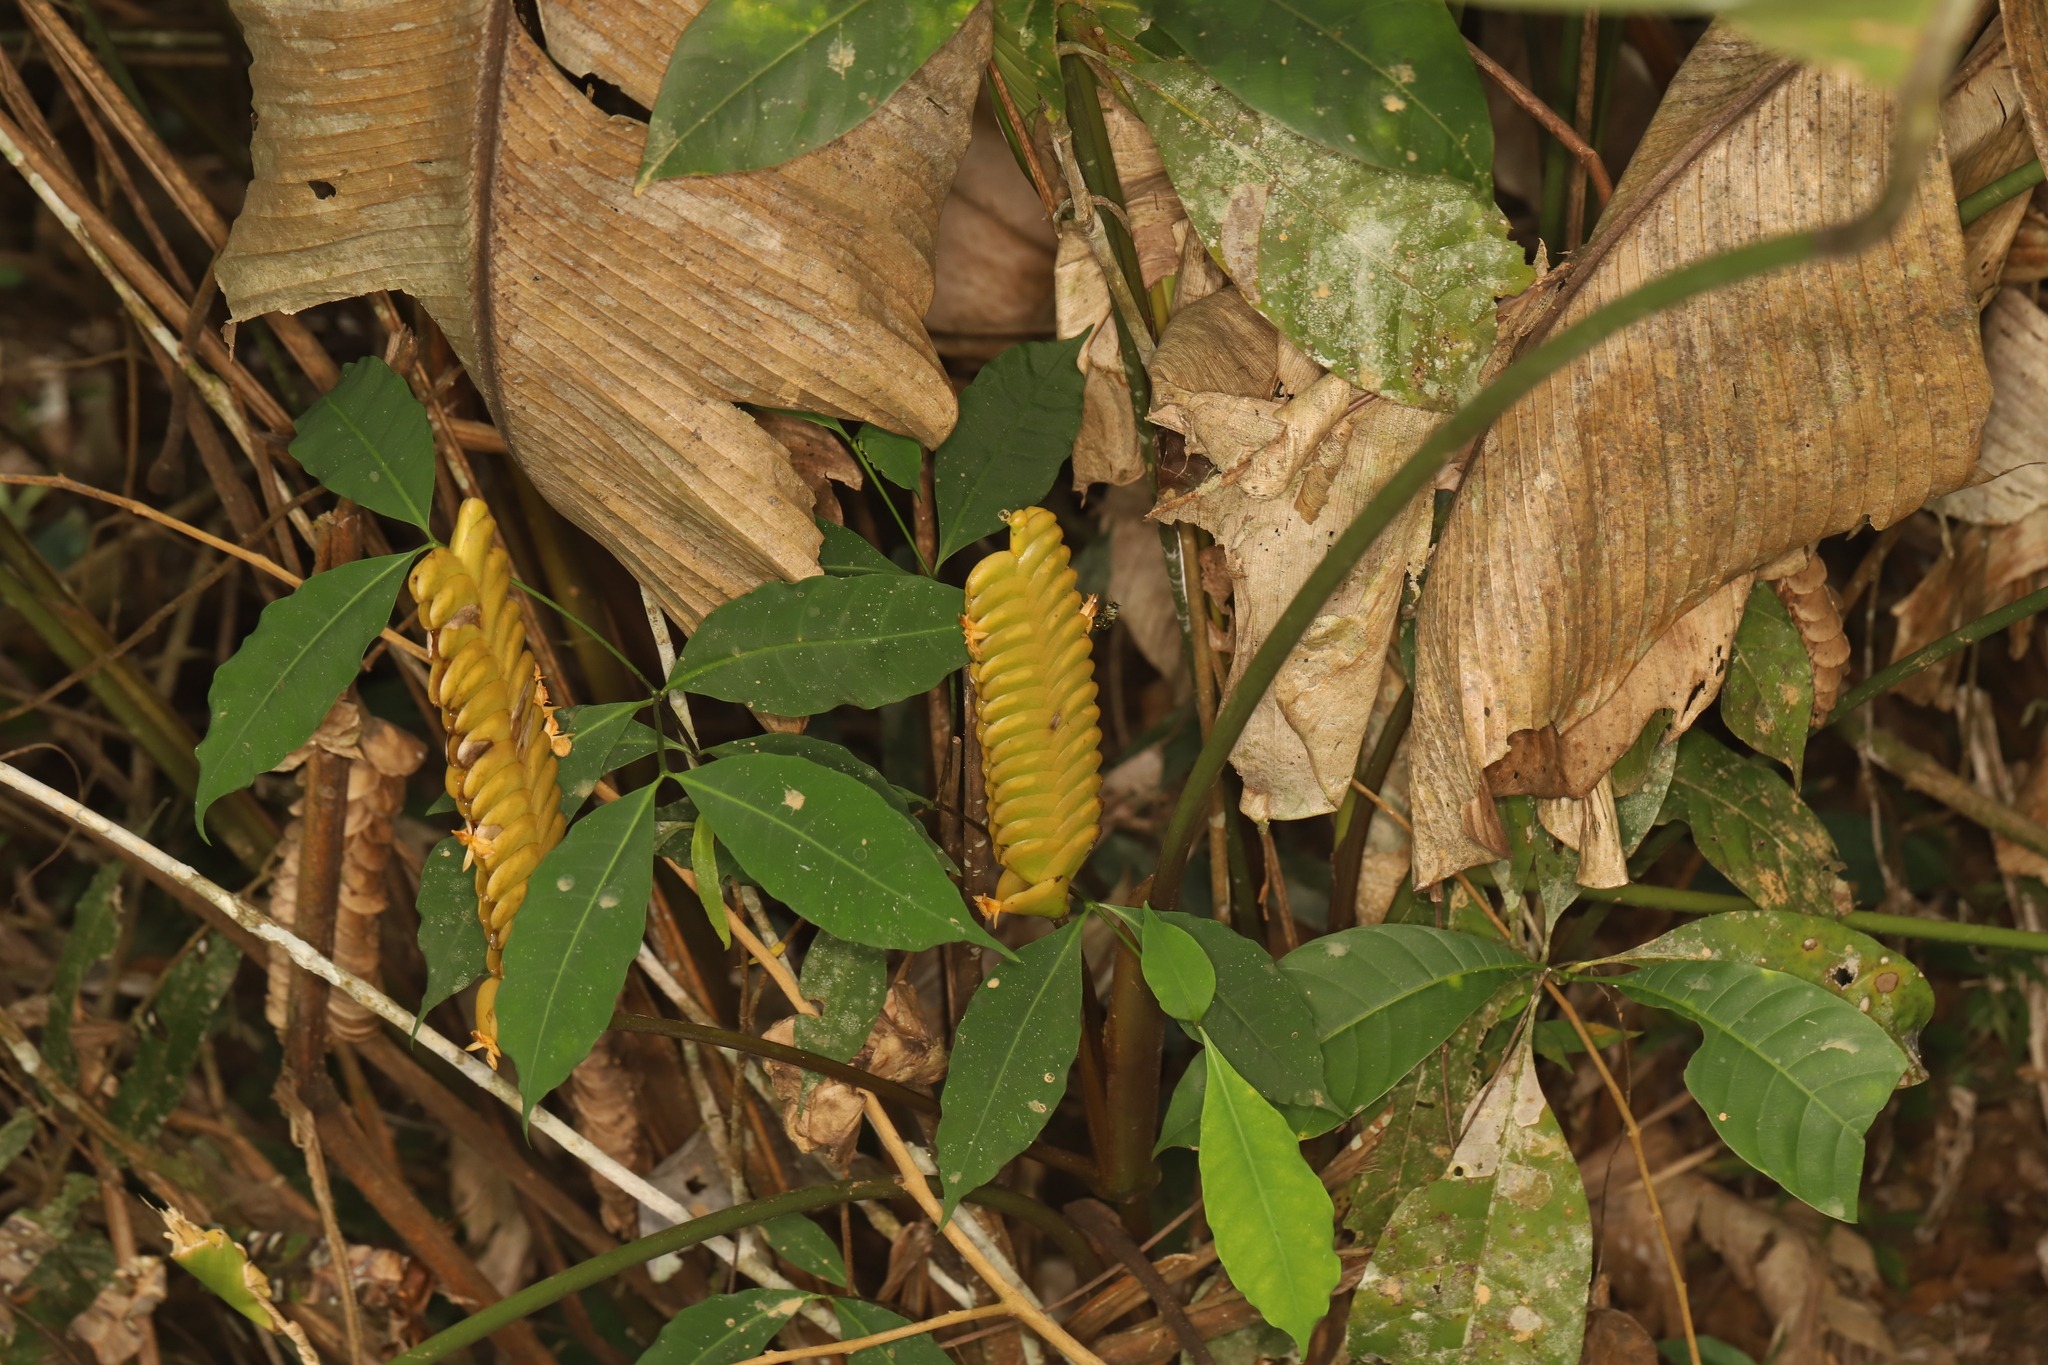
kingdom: Plantae
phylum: Tracheophyta
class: Liliopsida
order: Zingiberales
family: Marantaceae
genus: Calathea
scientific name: Calathea crotalifera
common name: Rattlesnake plant
